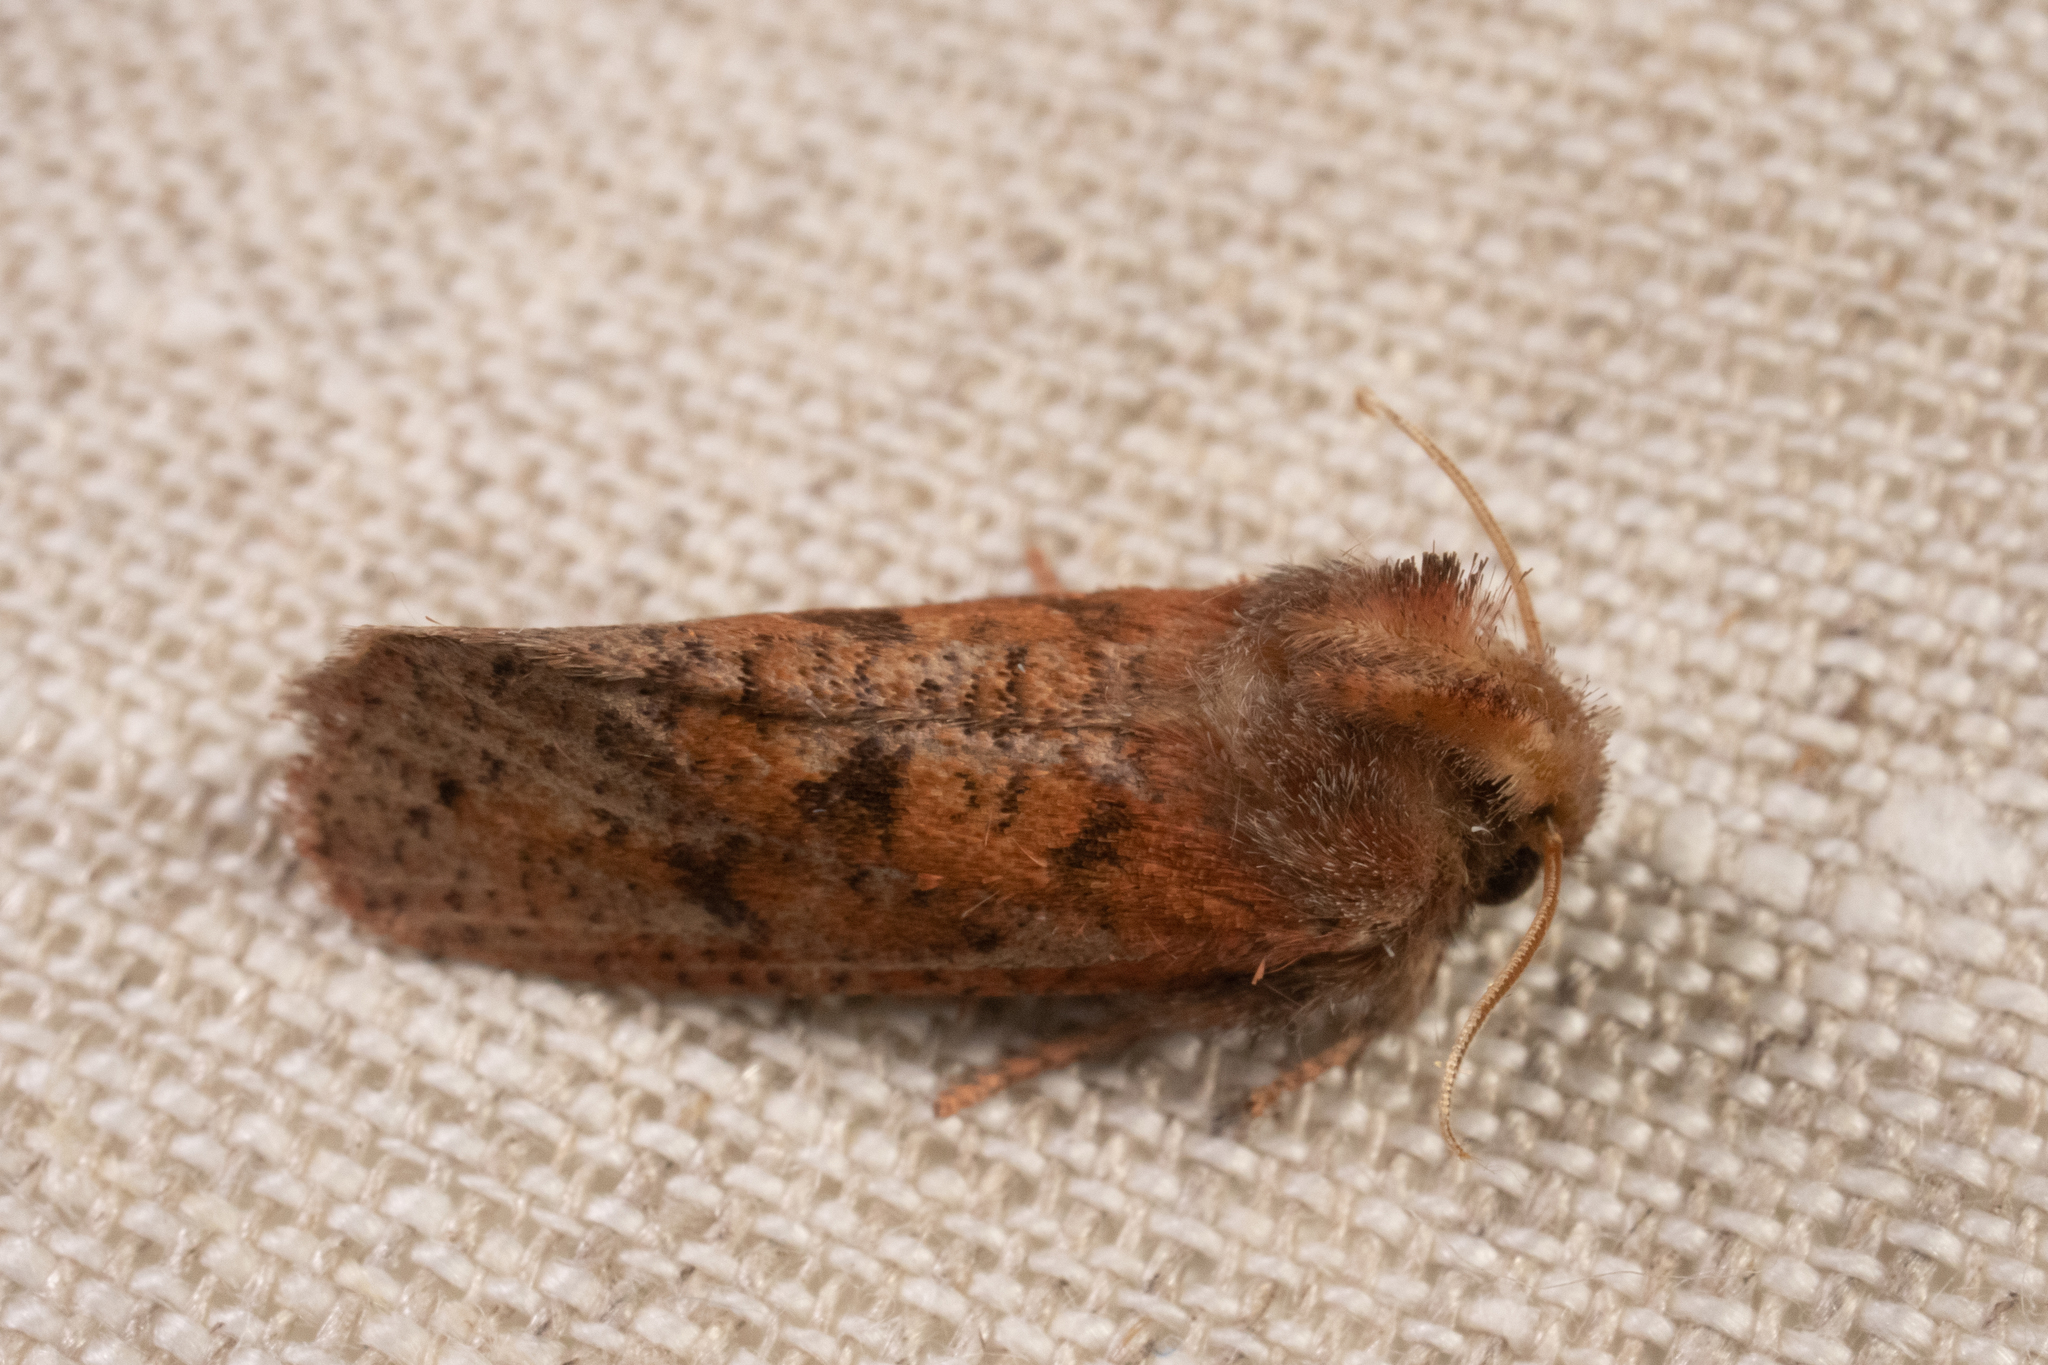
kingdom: Animalia
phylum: Arthropoda
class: Insecta
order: Lepidoptera
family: Tineidae
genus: Acrolophus
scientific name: Acrolophus plumifrontella
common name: Eastern grass tubeworm moth
